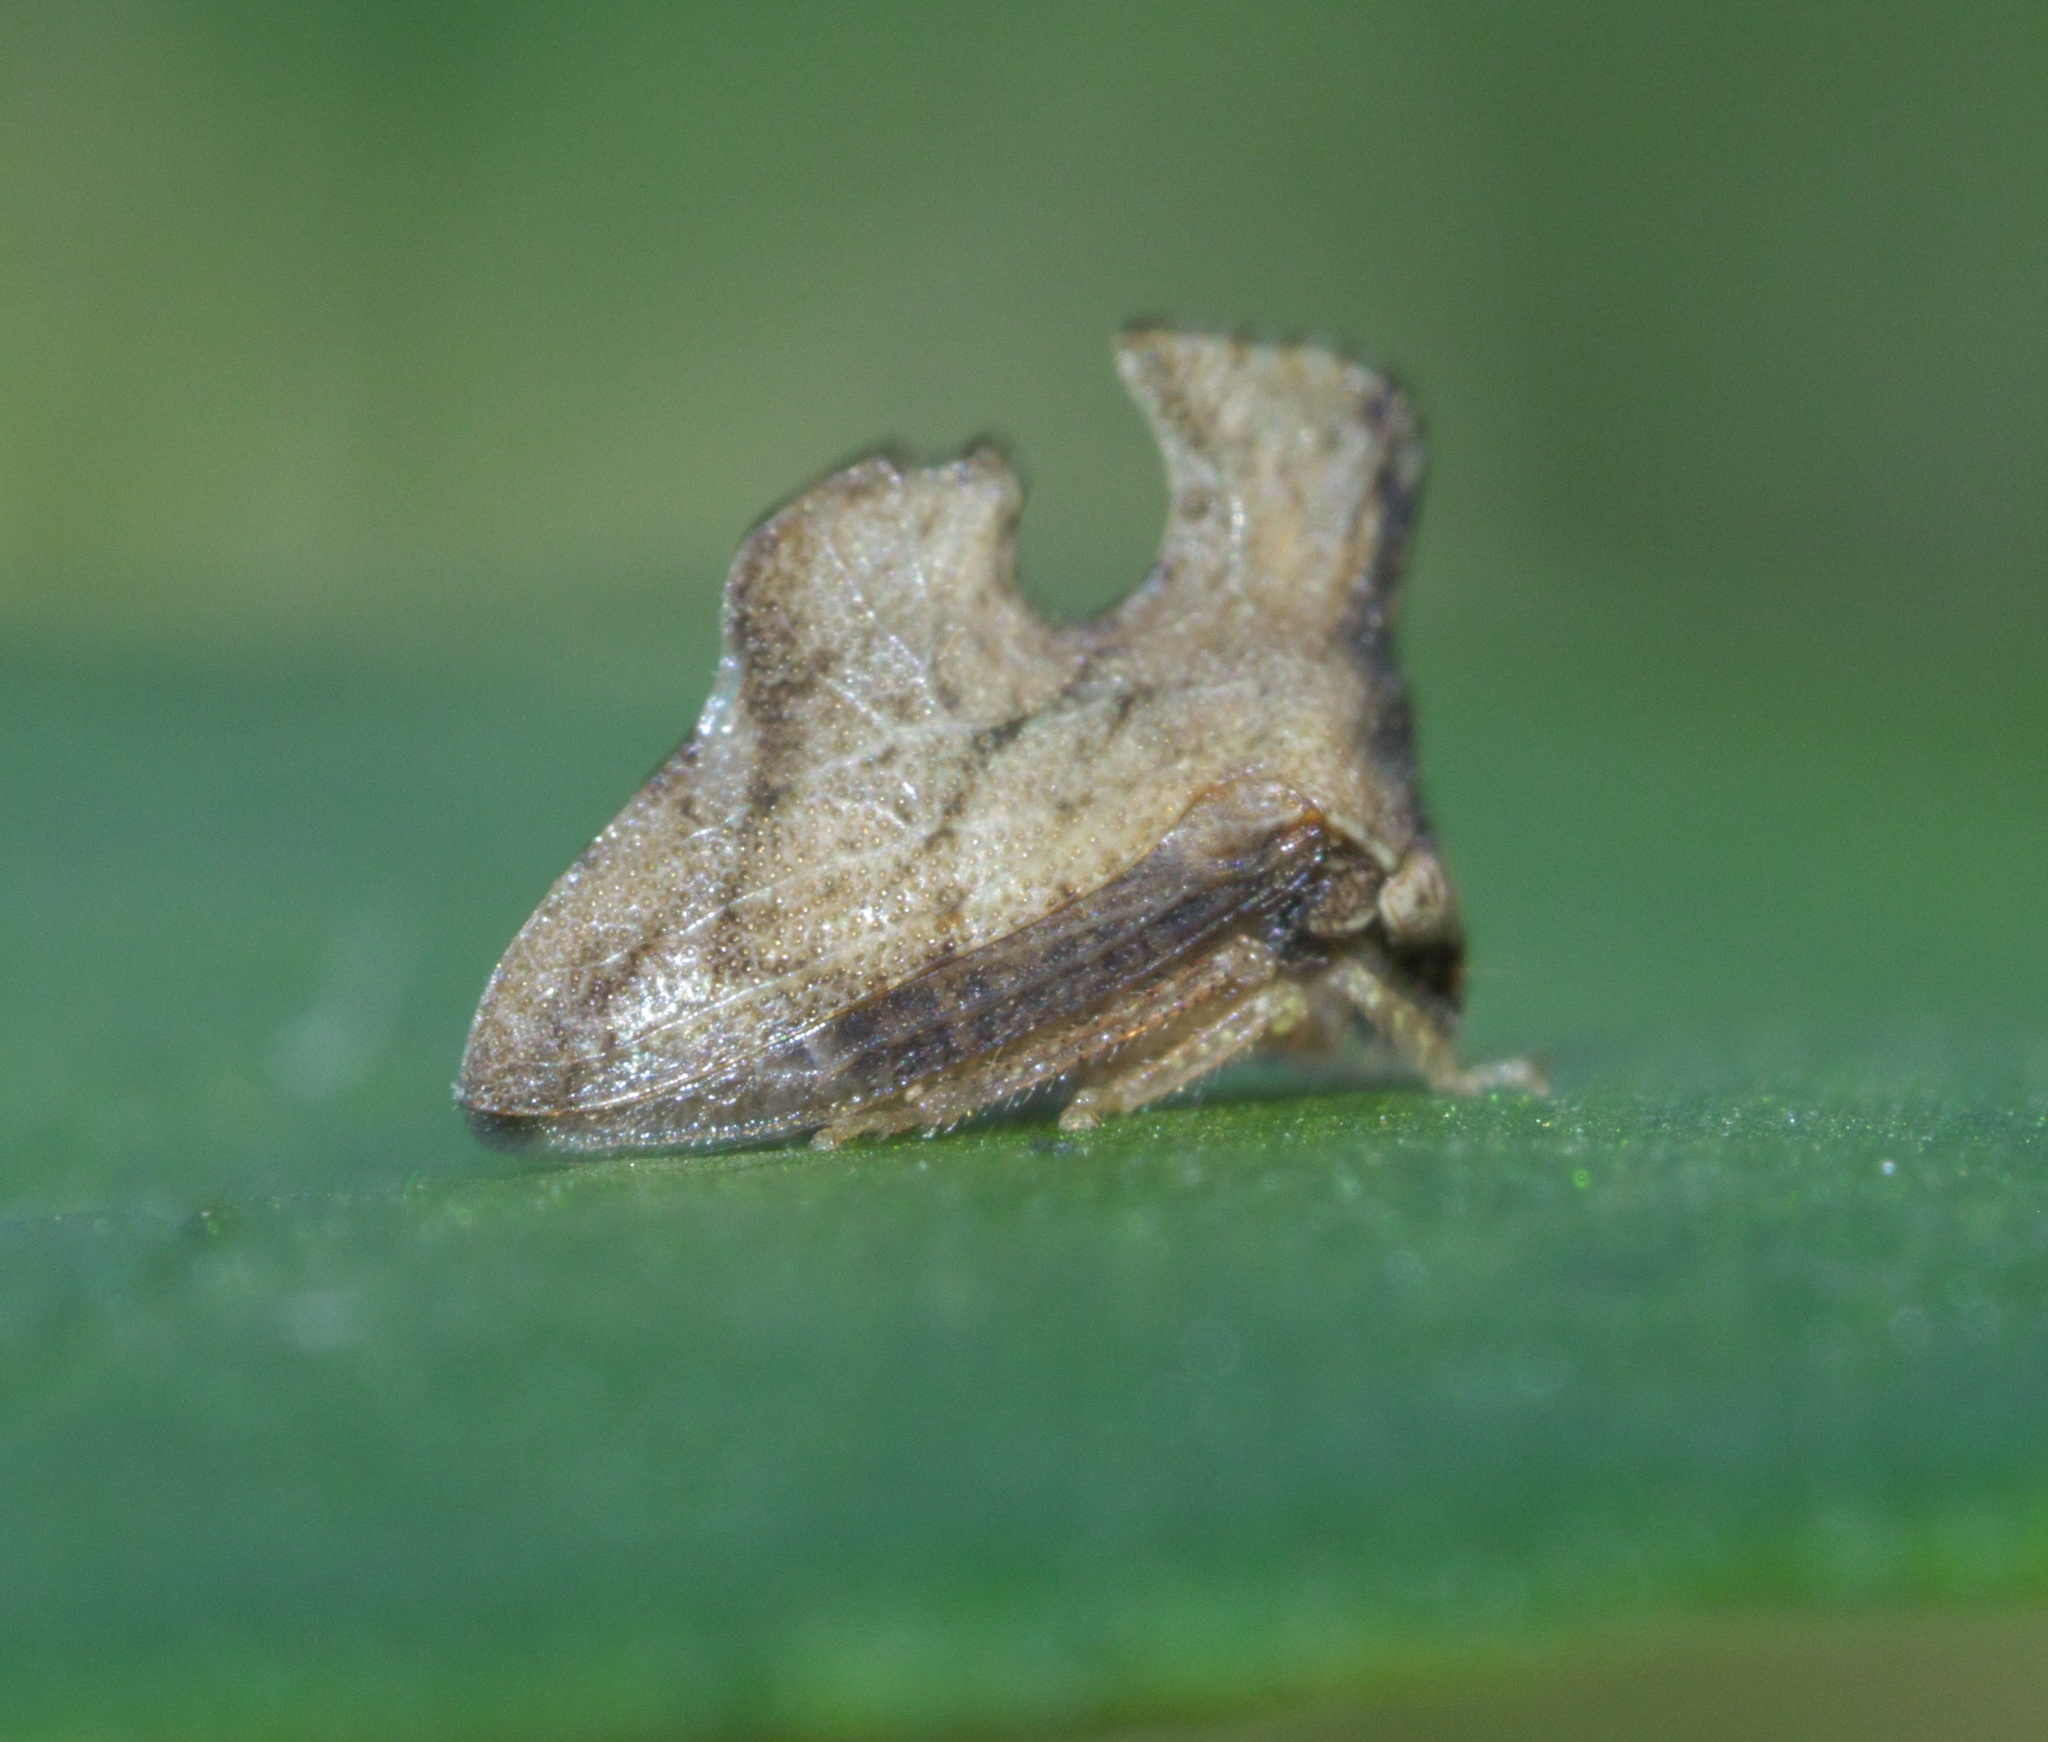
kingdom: Animalia
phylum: Arthropoda
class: Insecta
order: Hemiptera
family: Membracidae
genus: Entylia
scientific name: Entylia carinata
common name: Keeled treehopper
